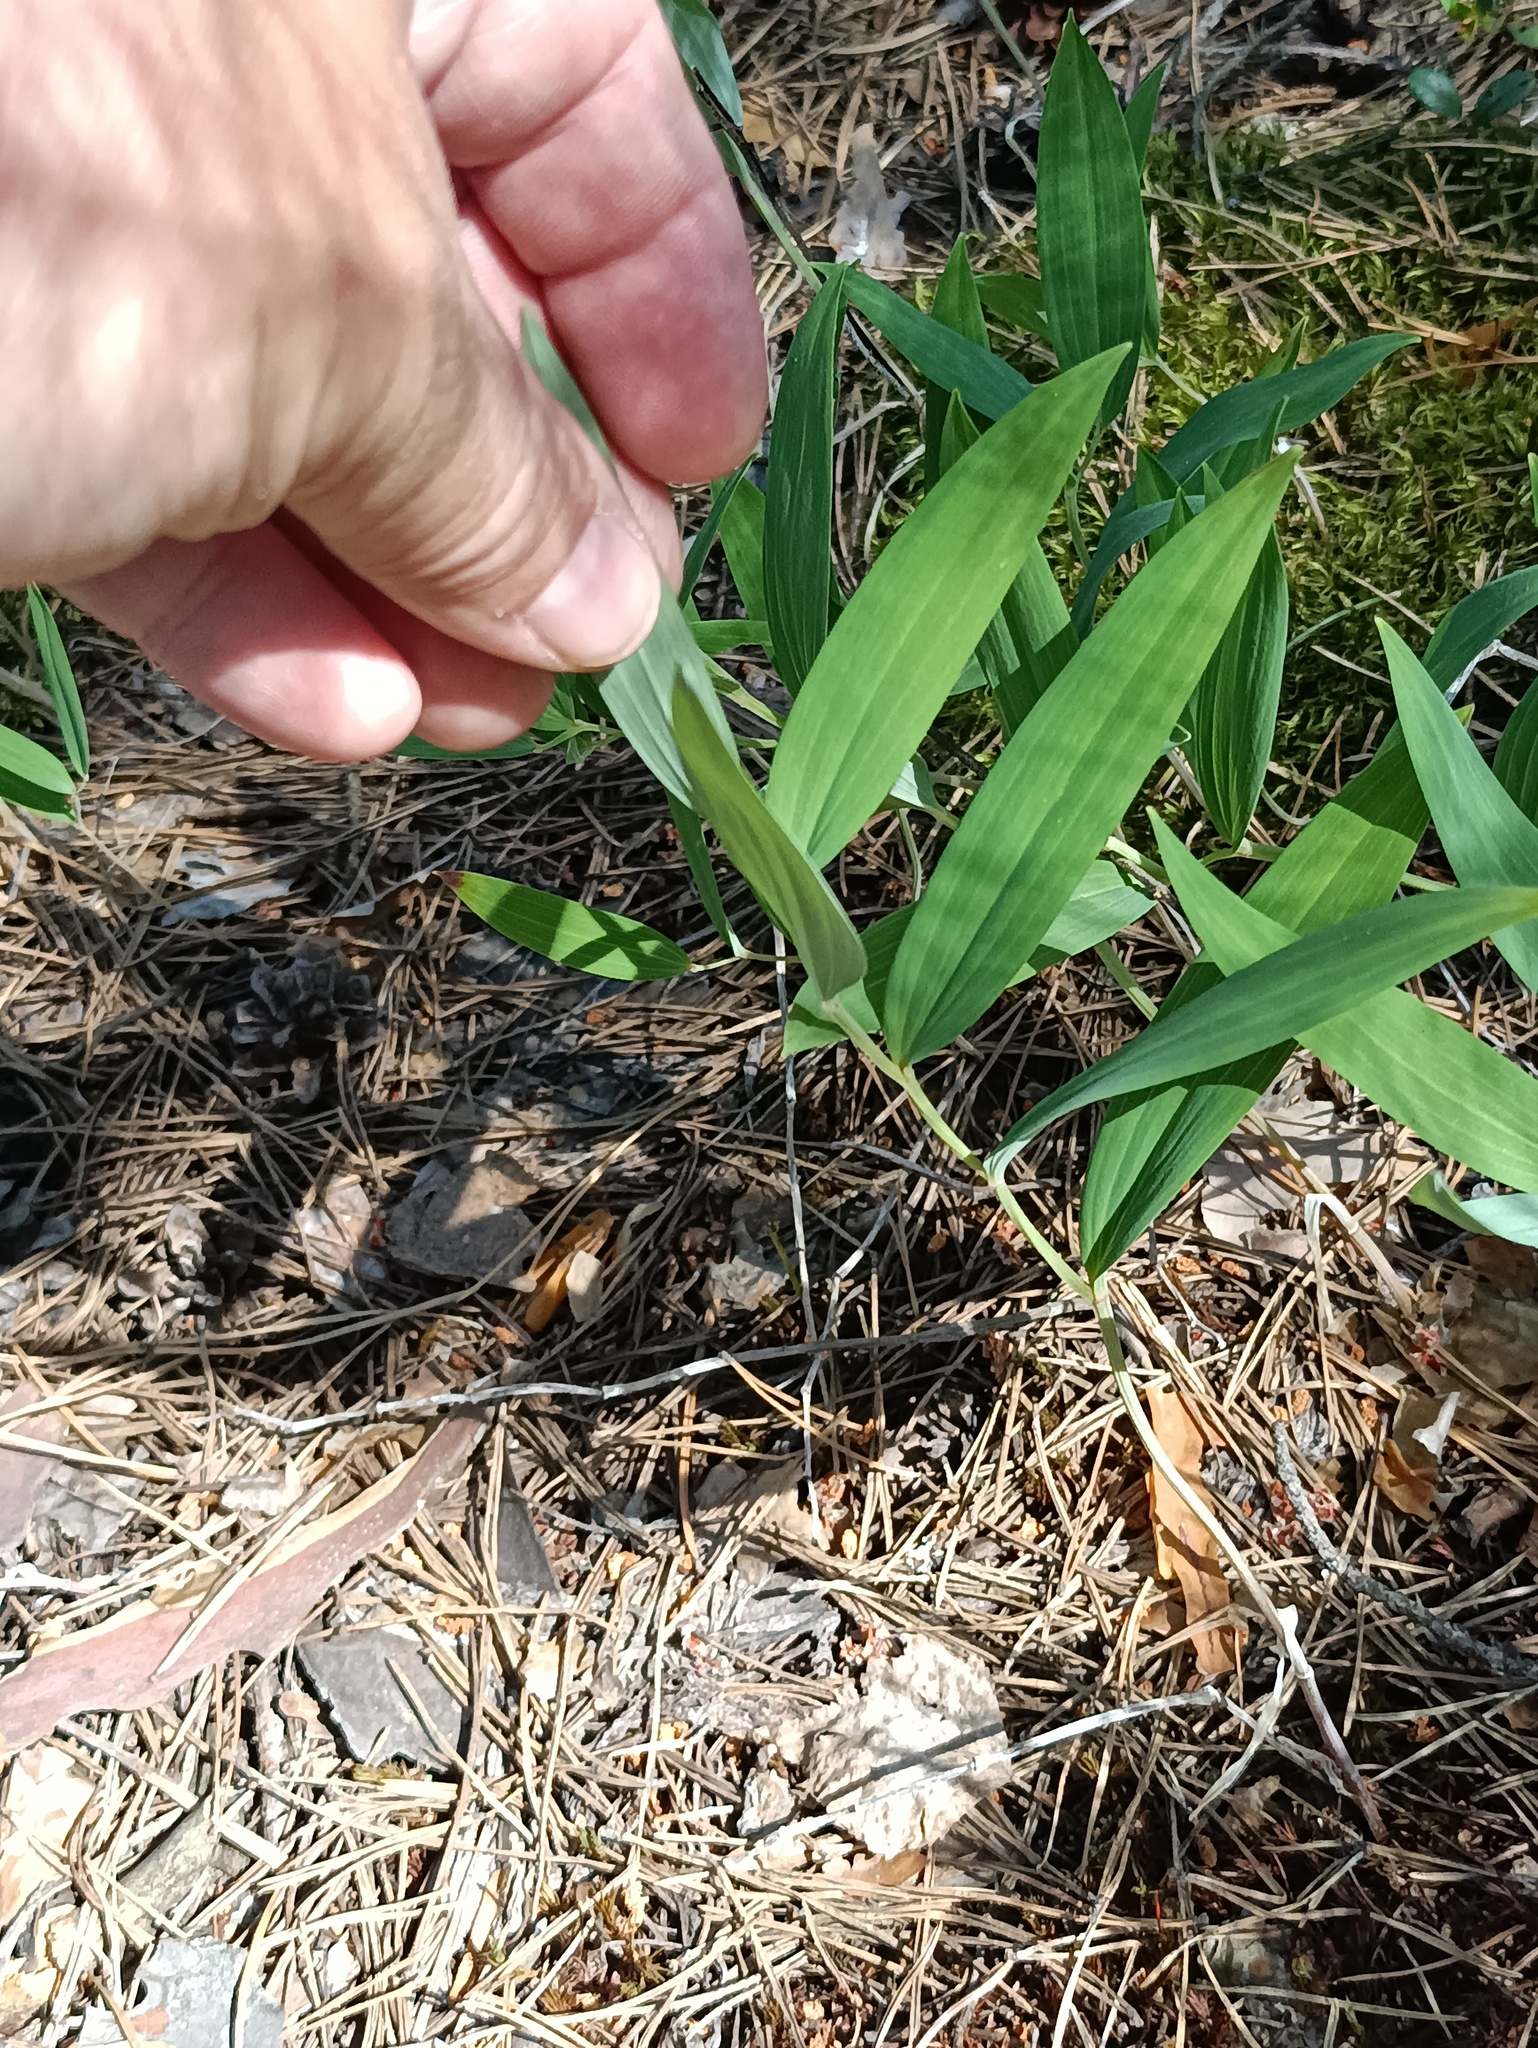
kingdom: Plantae
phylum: Tracheophyta
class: Liliopsida
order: Asparagales
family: Asparagaceae
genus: Polygonatum
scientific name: Polygonatum odoratum
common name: Angular solomon's-seal
